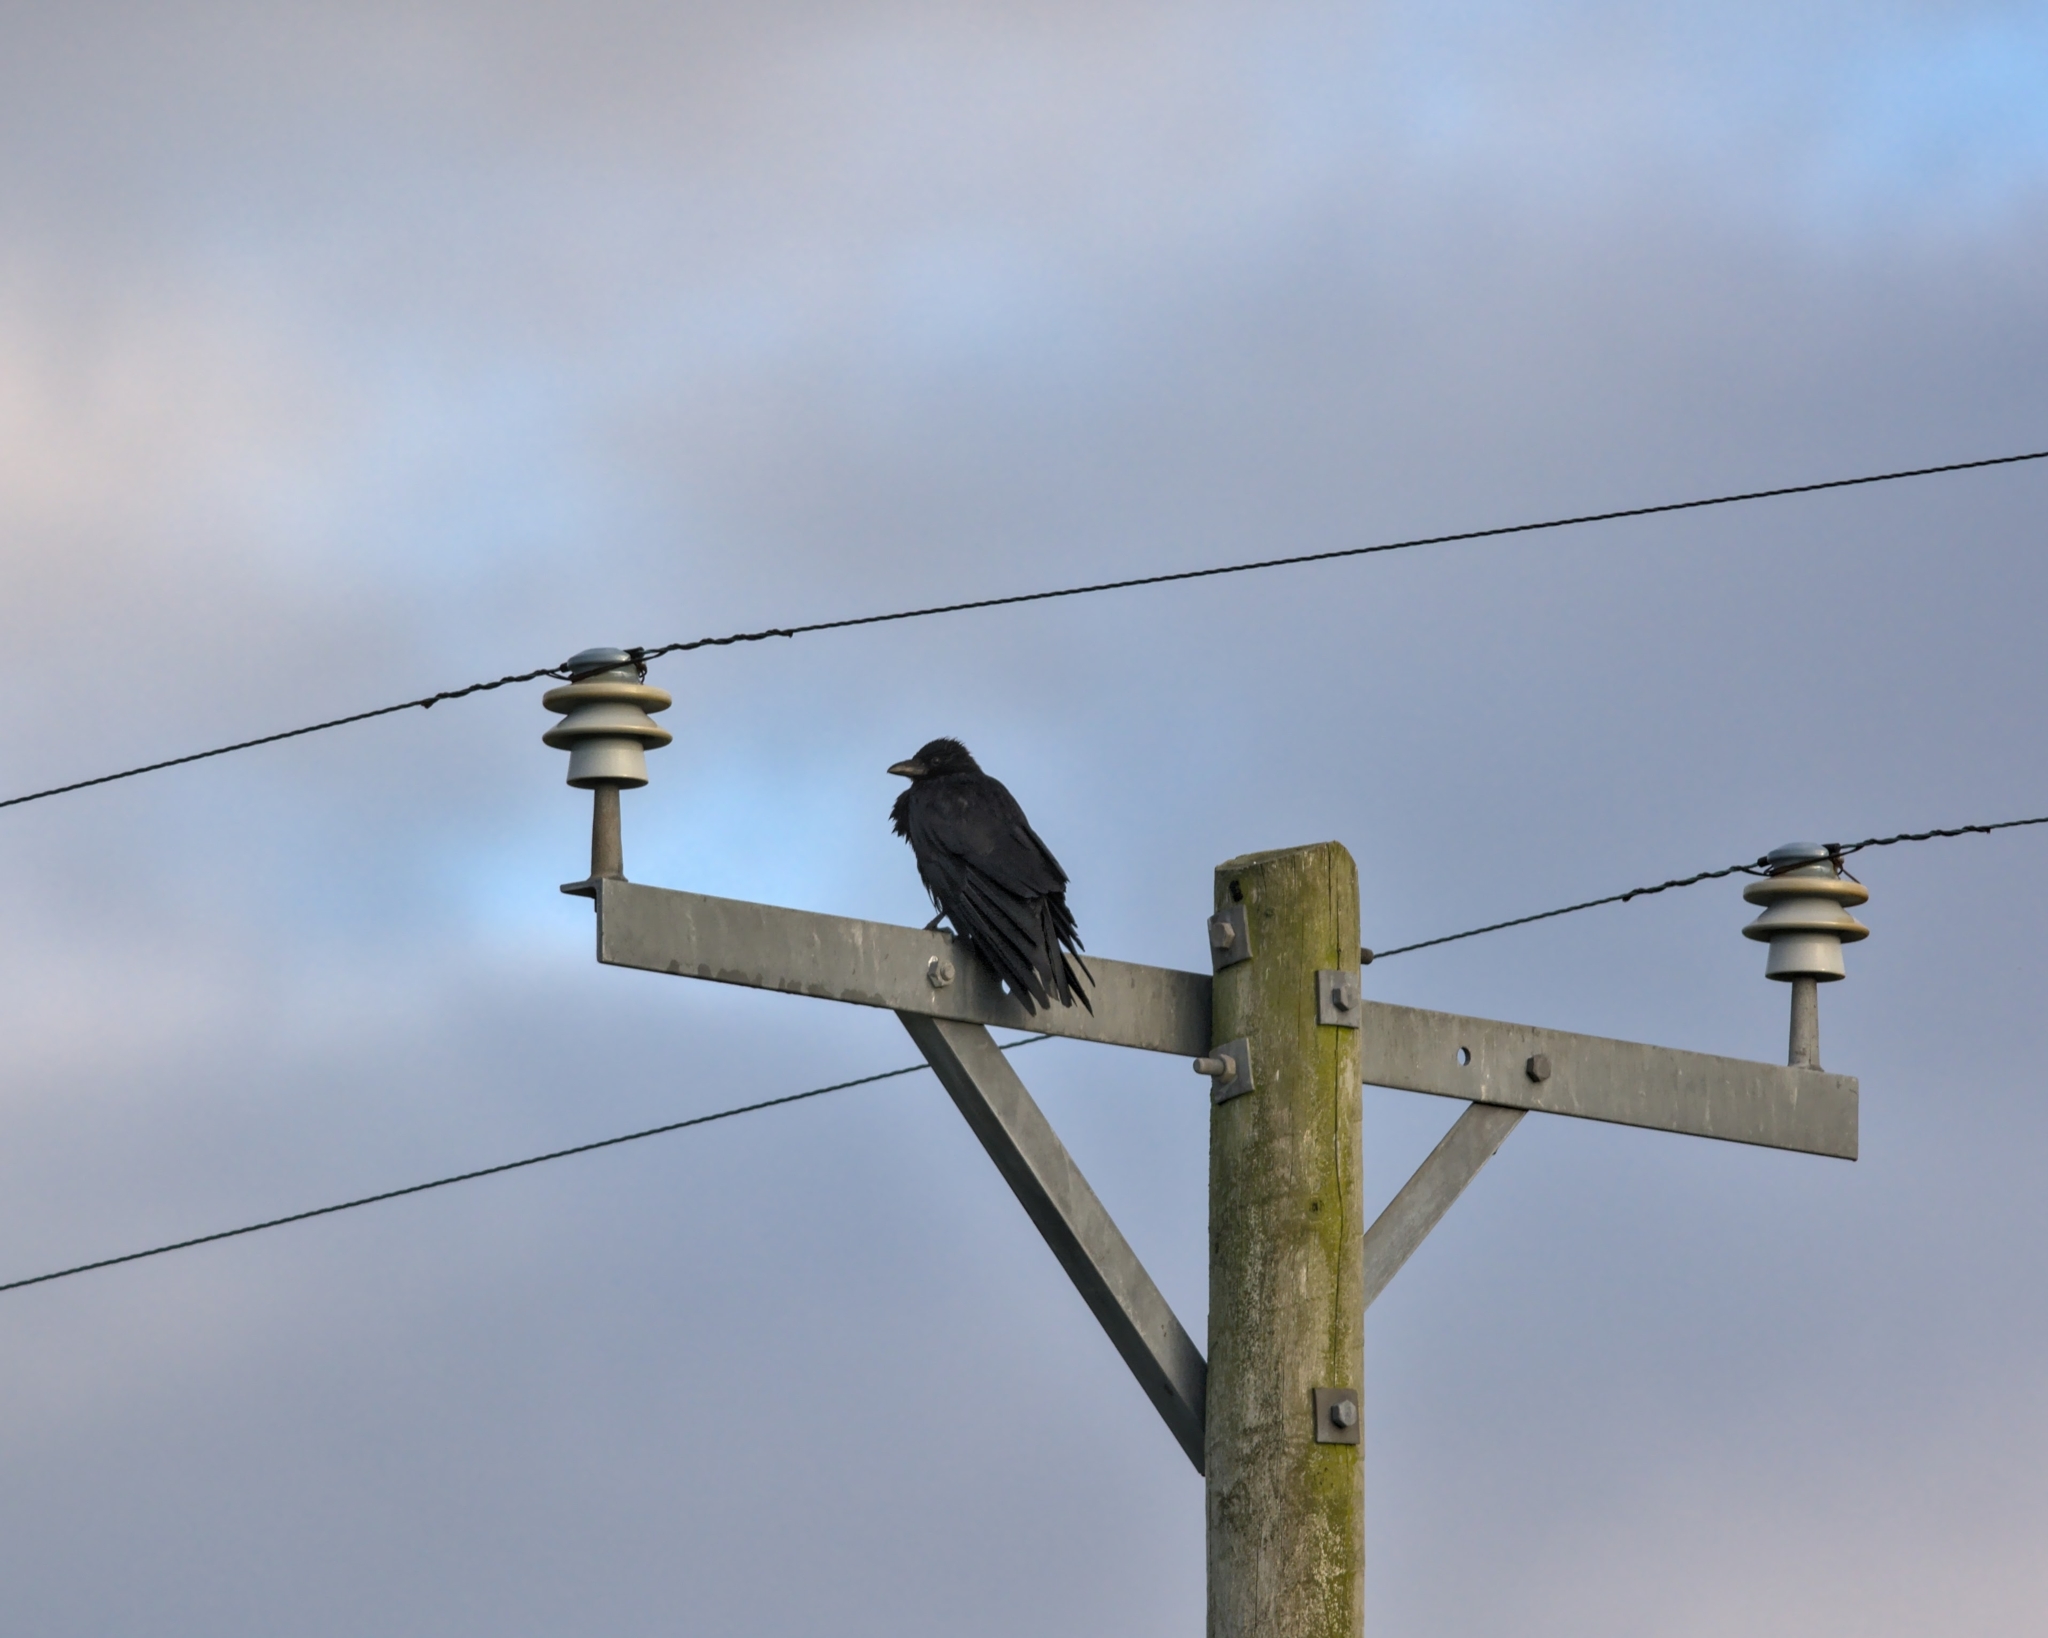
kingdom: Animalia
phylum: Chordata
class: Aves
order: Passeriformes
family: Corvidae
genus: Corvus
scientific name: Corvus corax
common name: Common raven
